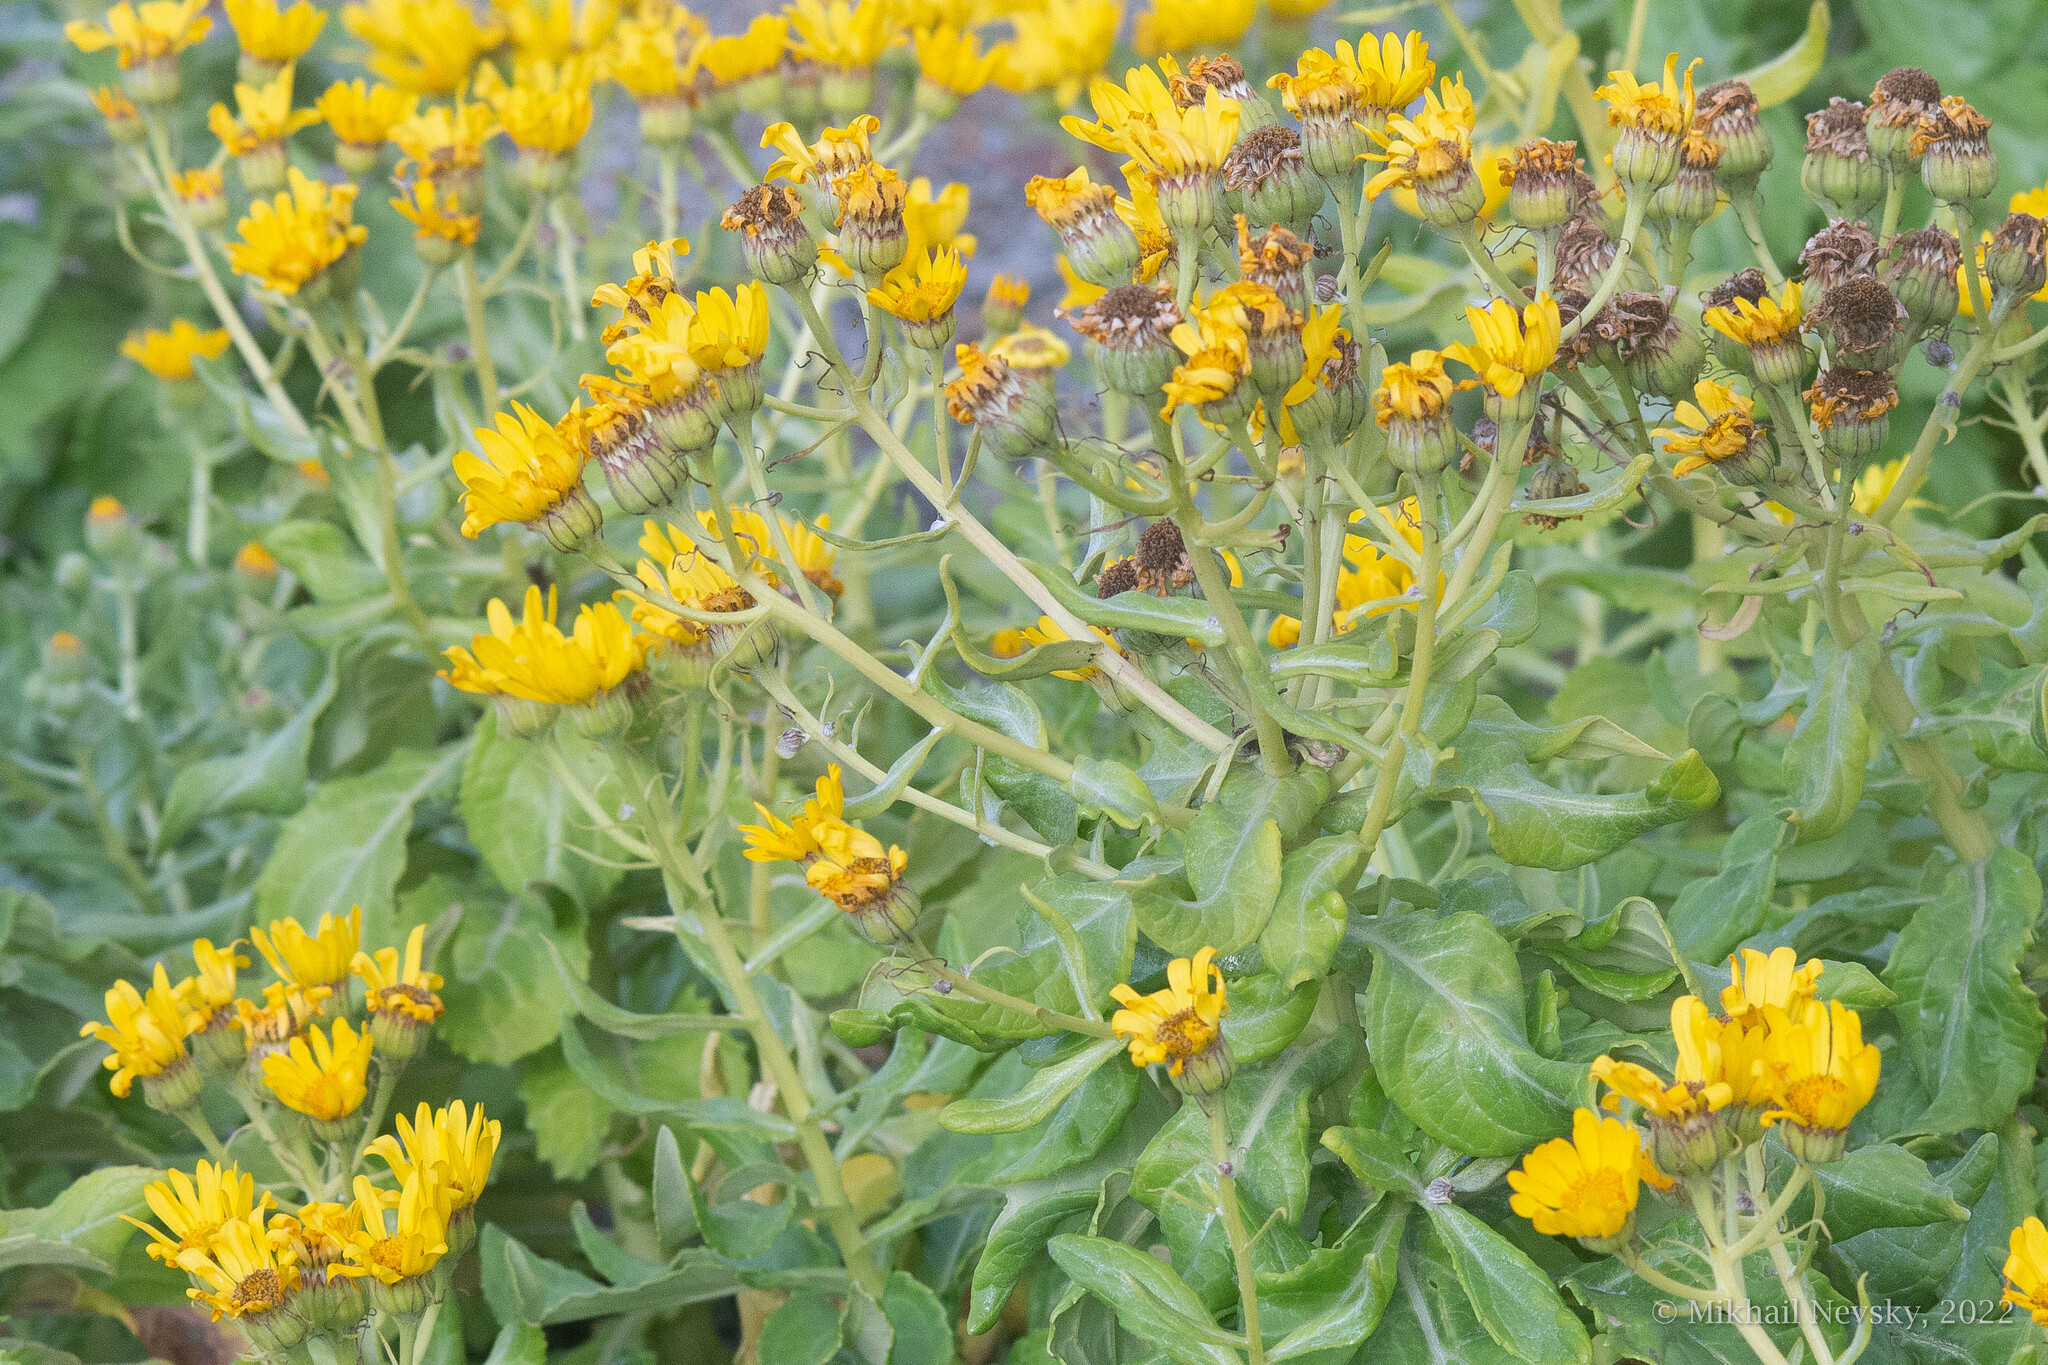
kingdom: Plantae
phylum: Tracheophyta
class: Magnoliopsida
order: Asterales
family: Asteraceae
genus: Jacobaea
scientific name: Jacobaea pseudoarnica
